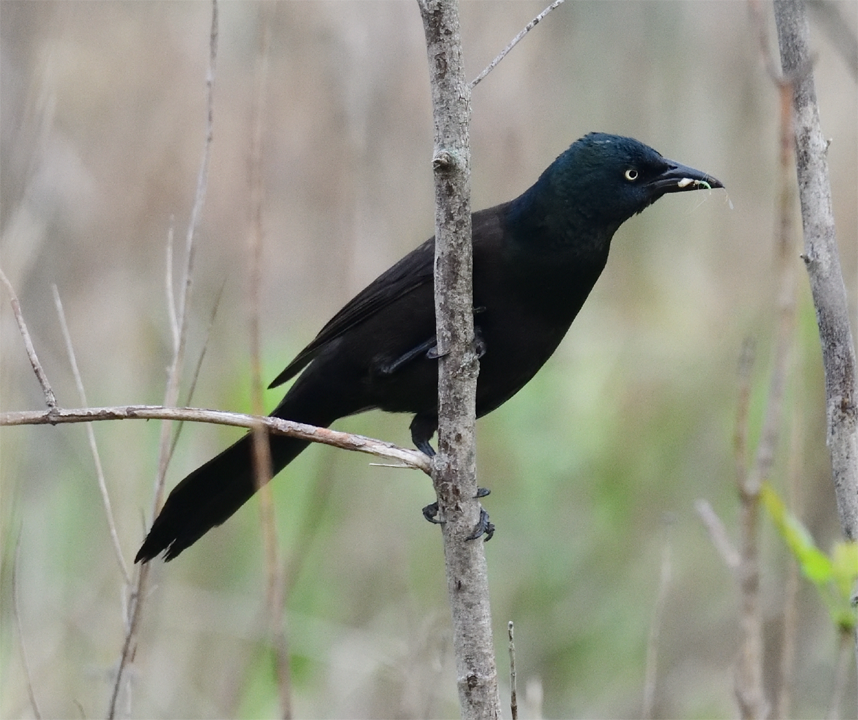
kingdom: Animalia
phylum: Chordata
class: Aves
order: Passeriformes
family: Icteridae
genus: Quiscalus
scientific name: Quiscalus quiscula
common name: Common grackle
